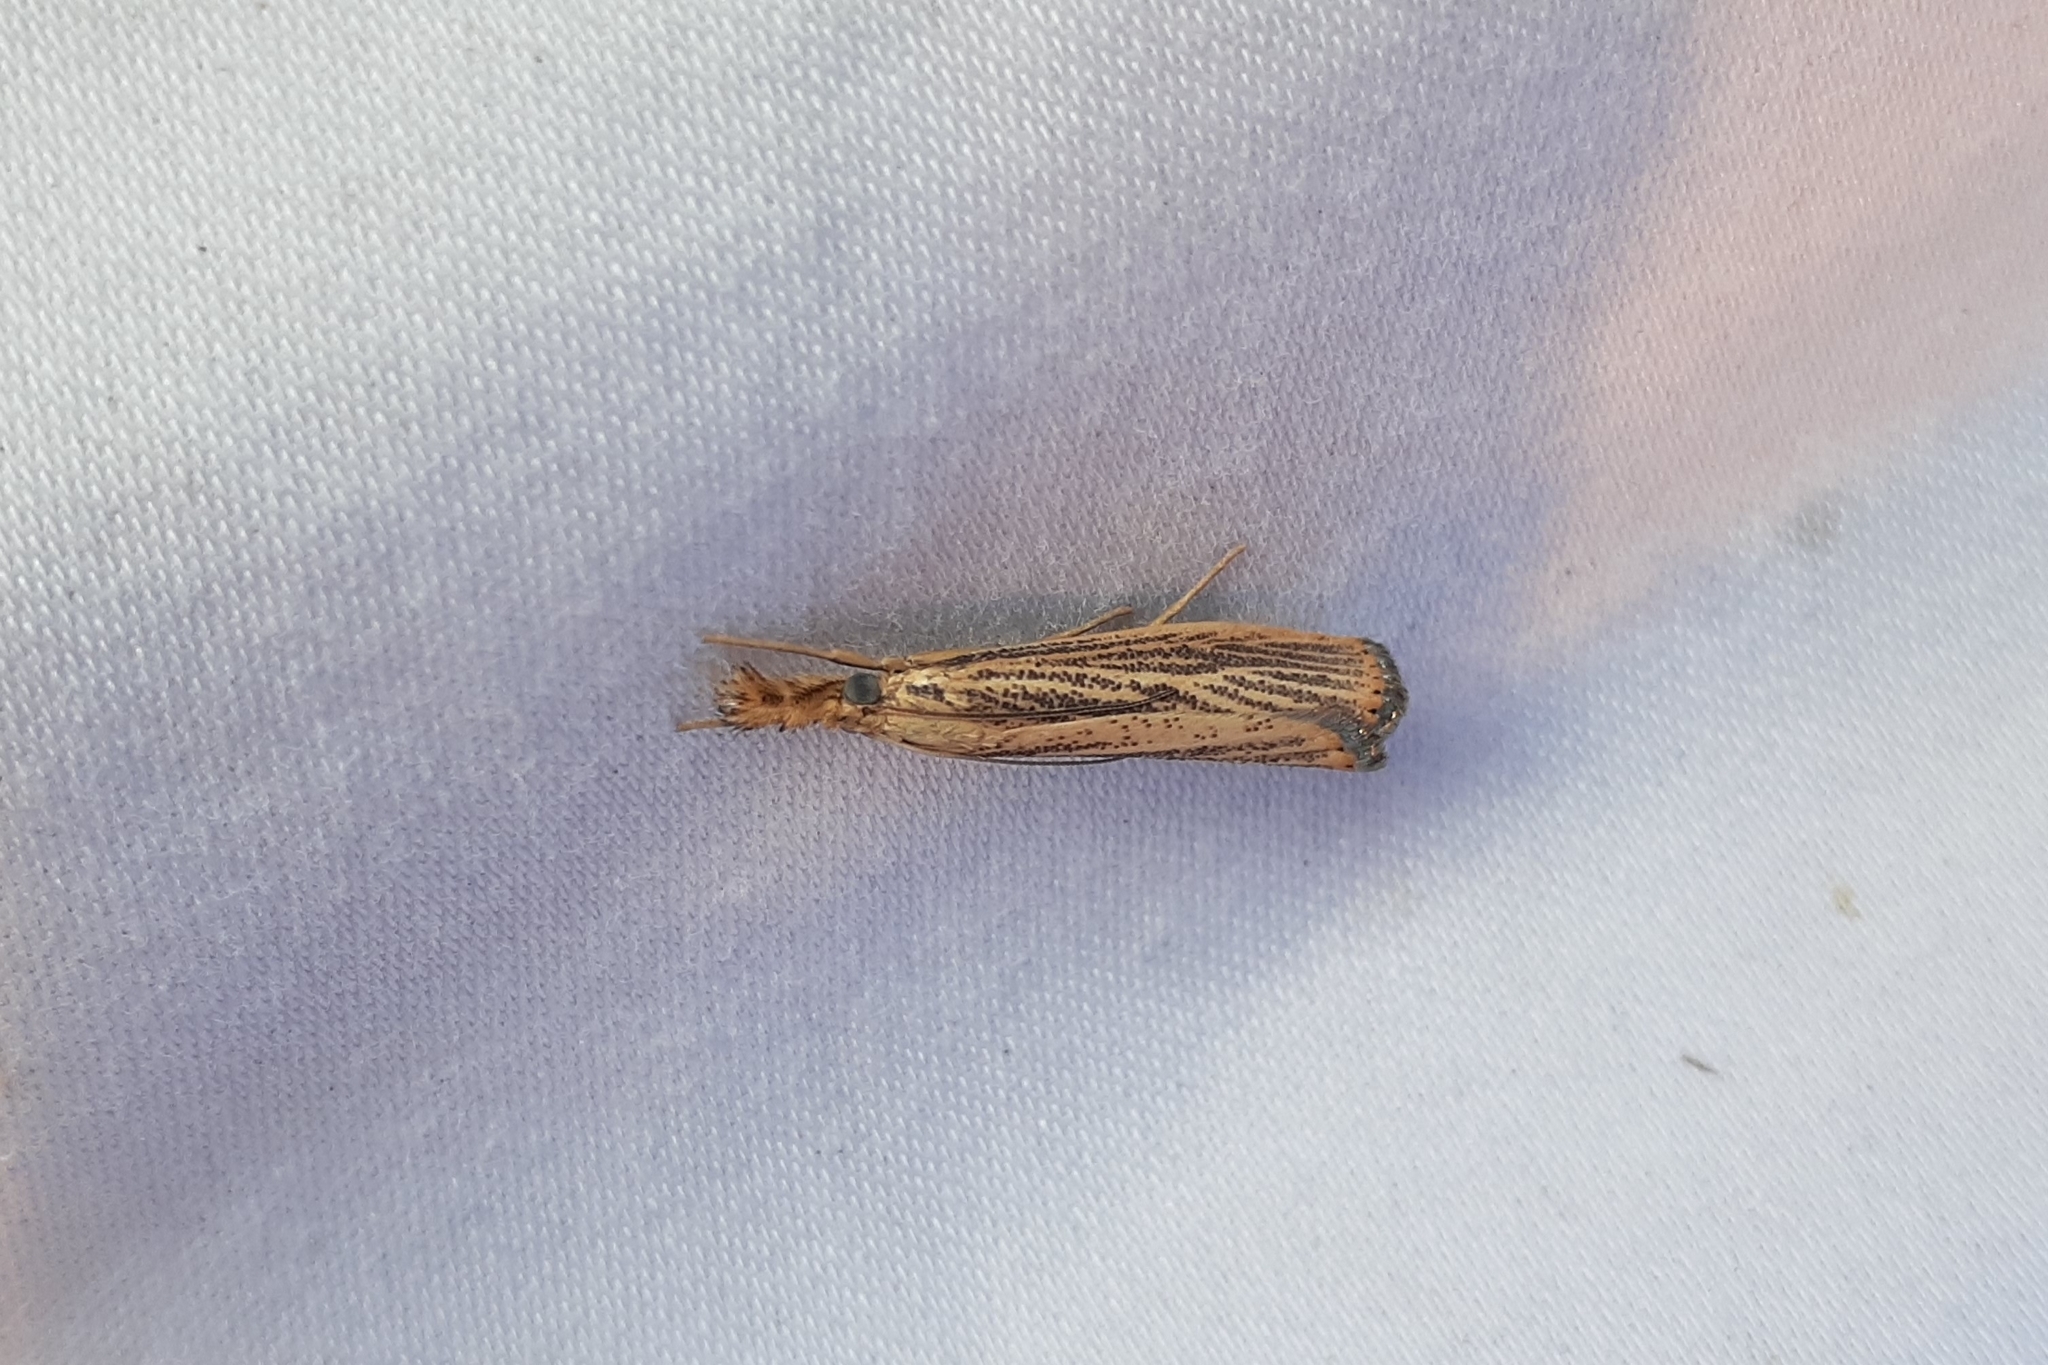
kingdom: Animalia
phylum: Arthropoda
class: Insecta
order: Lepidoptera
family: Crambidae
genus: Agriphila
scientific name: Agriphila vulgivagellus
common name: Vagabond crambus moth
